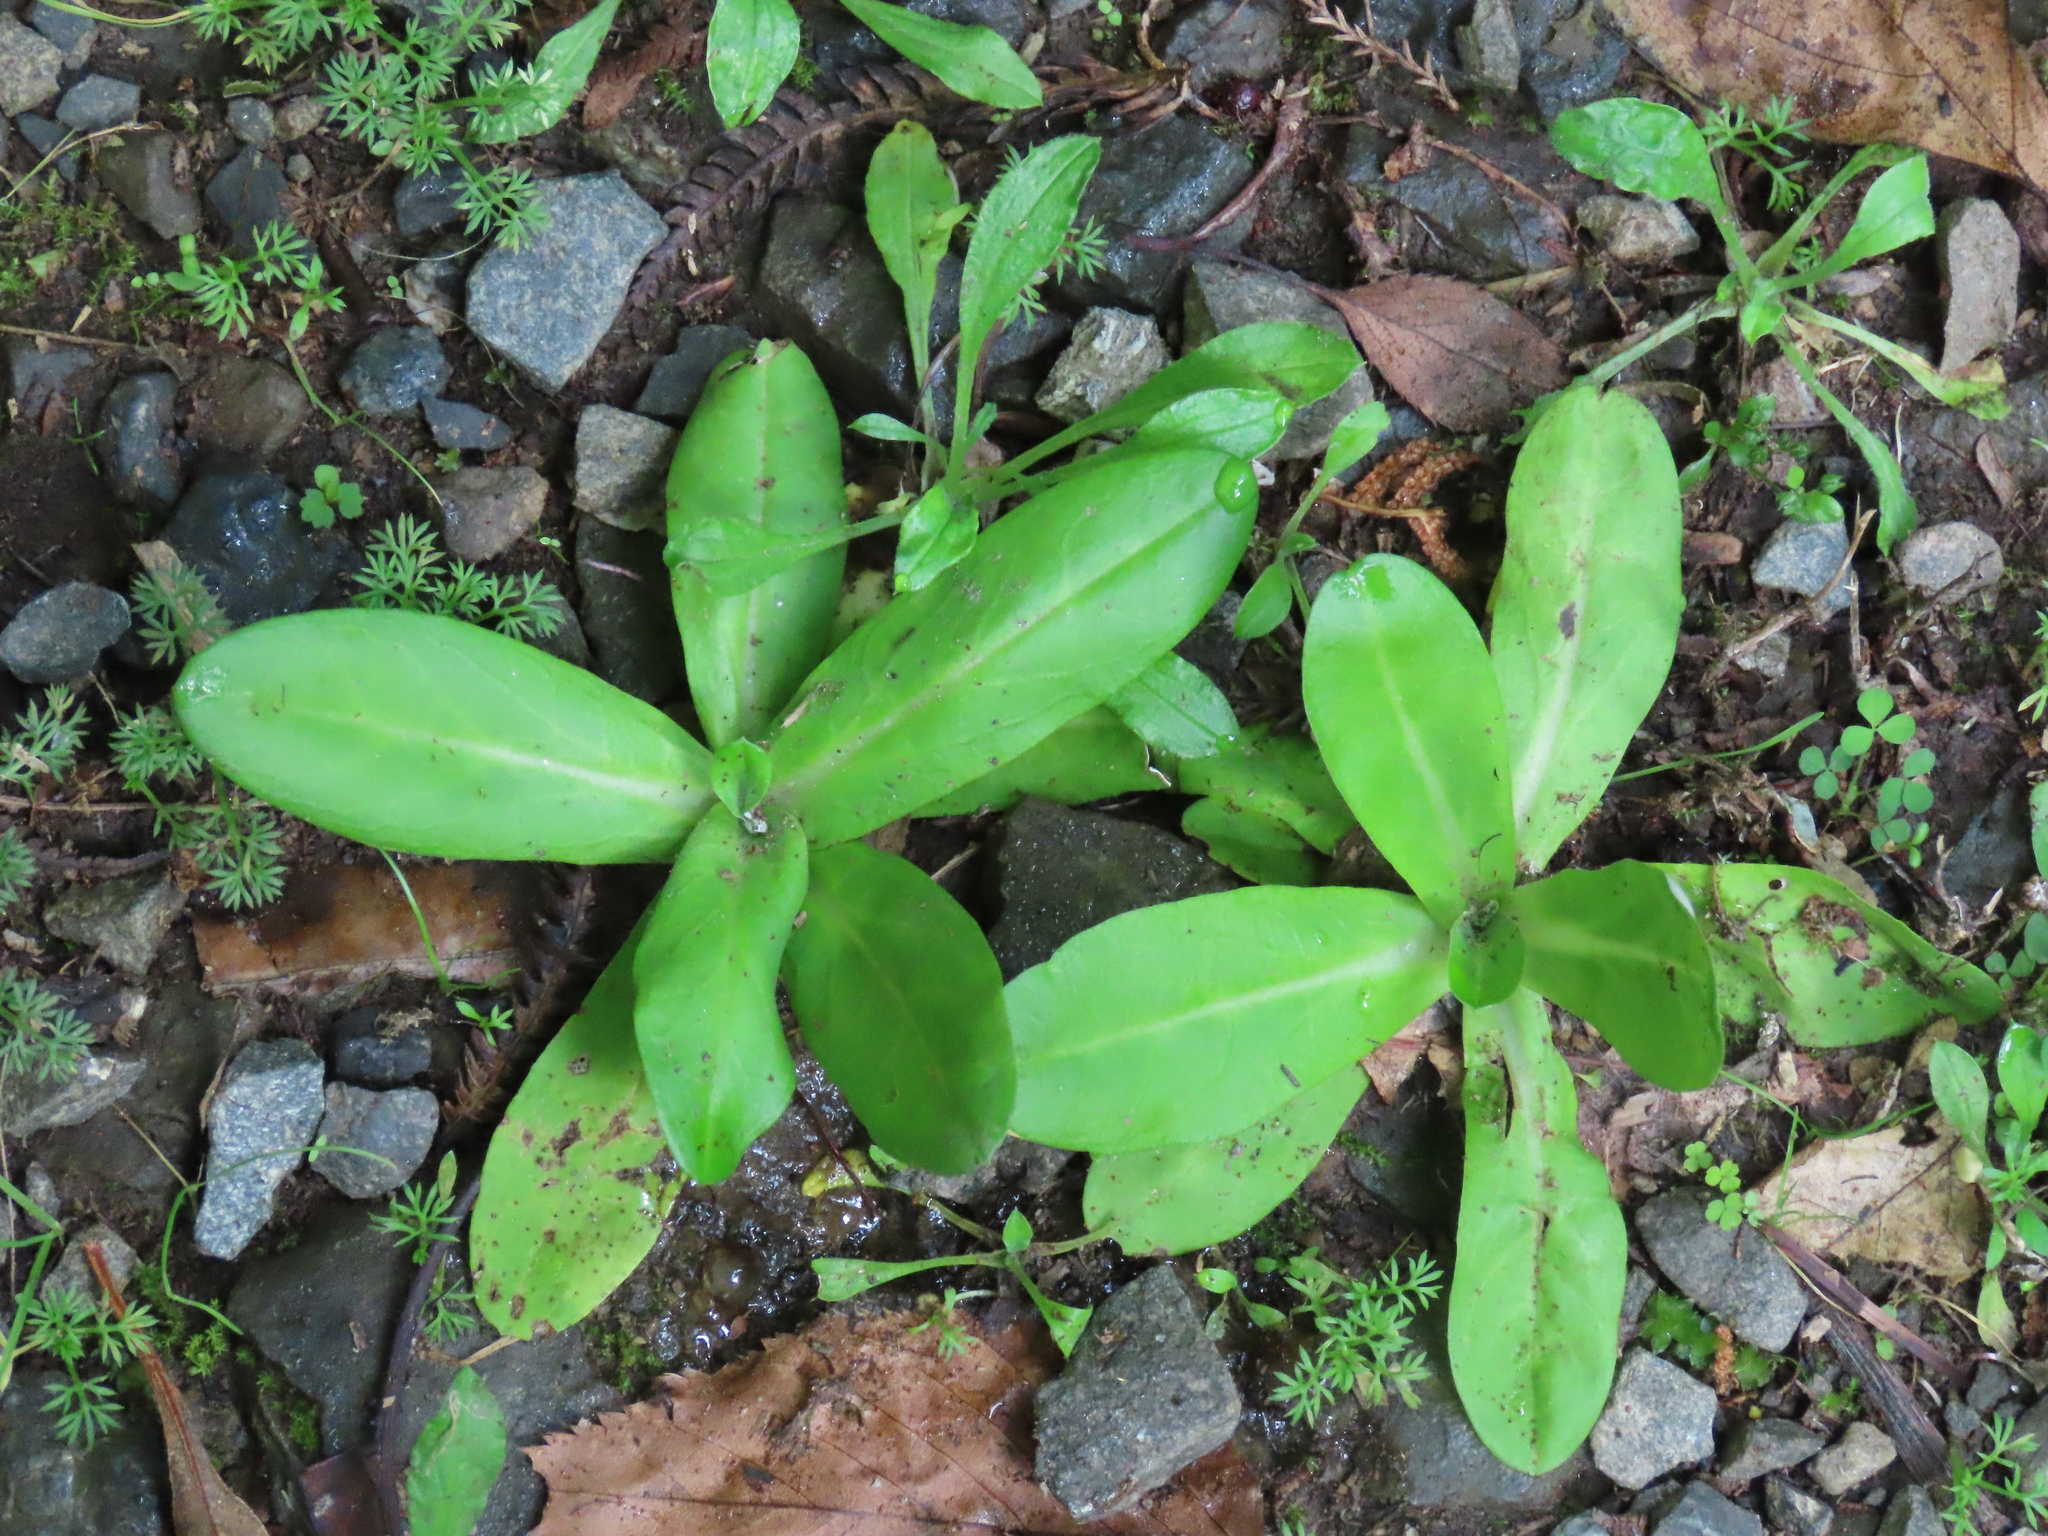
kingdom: Plantae
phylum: Tracheophyta
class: Magnoliopsida
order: Asterales
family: Asteraceae
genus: Gamochaeta
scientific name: Gamochaeta americana
